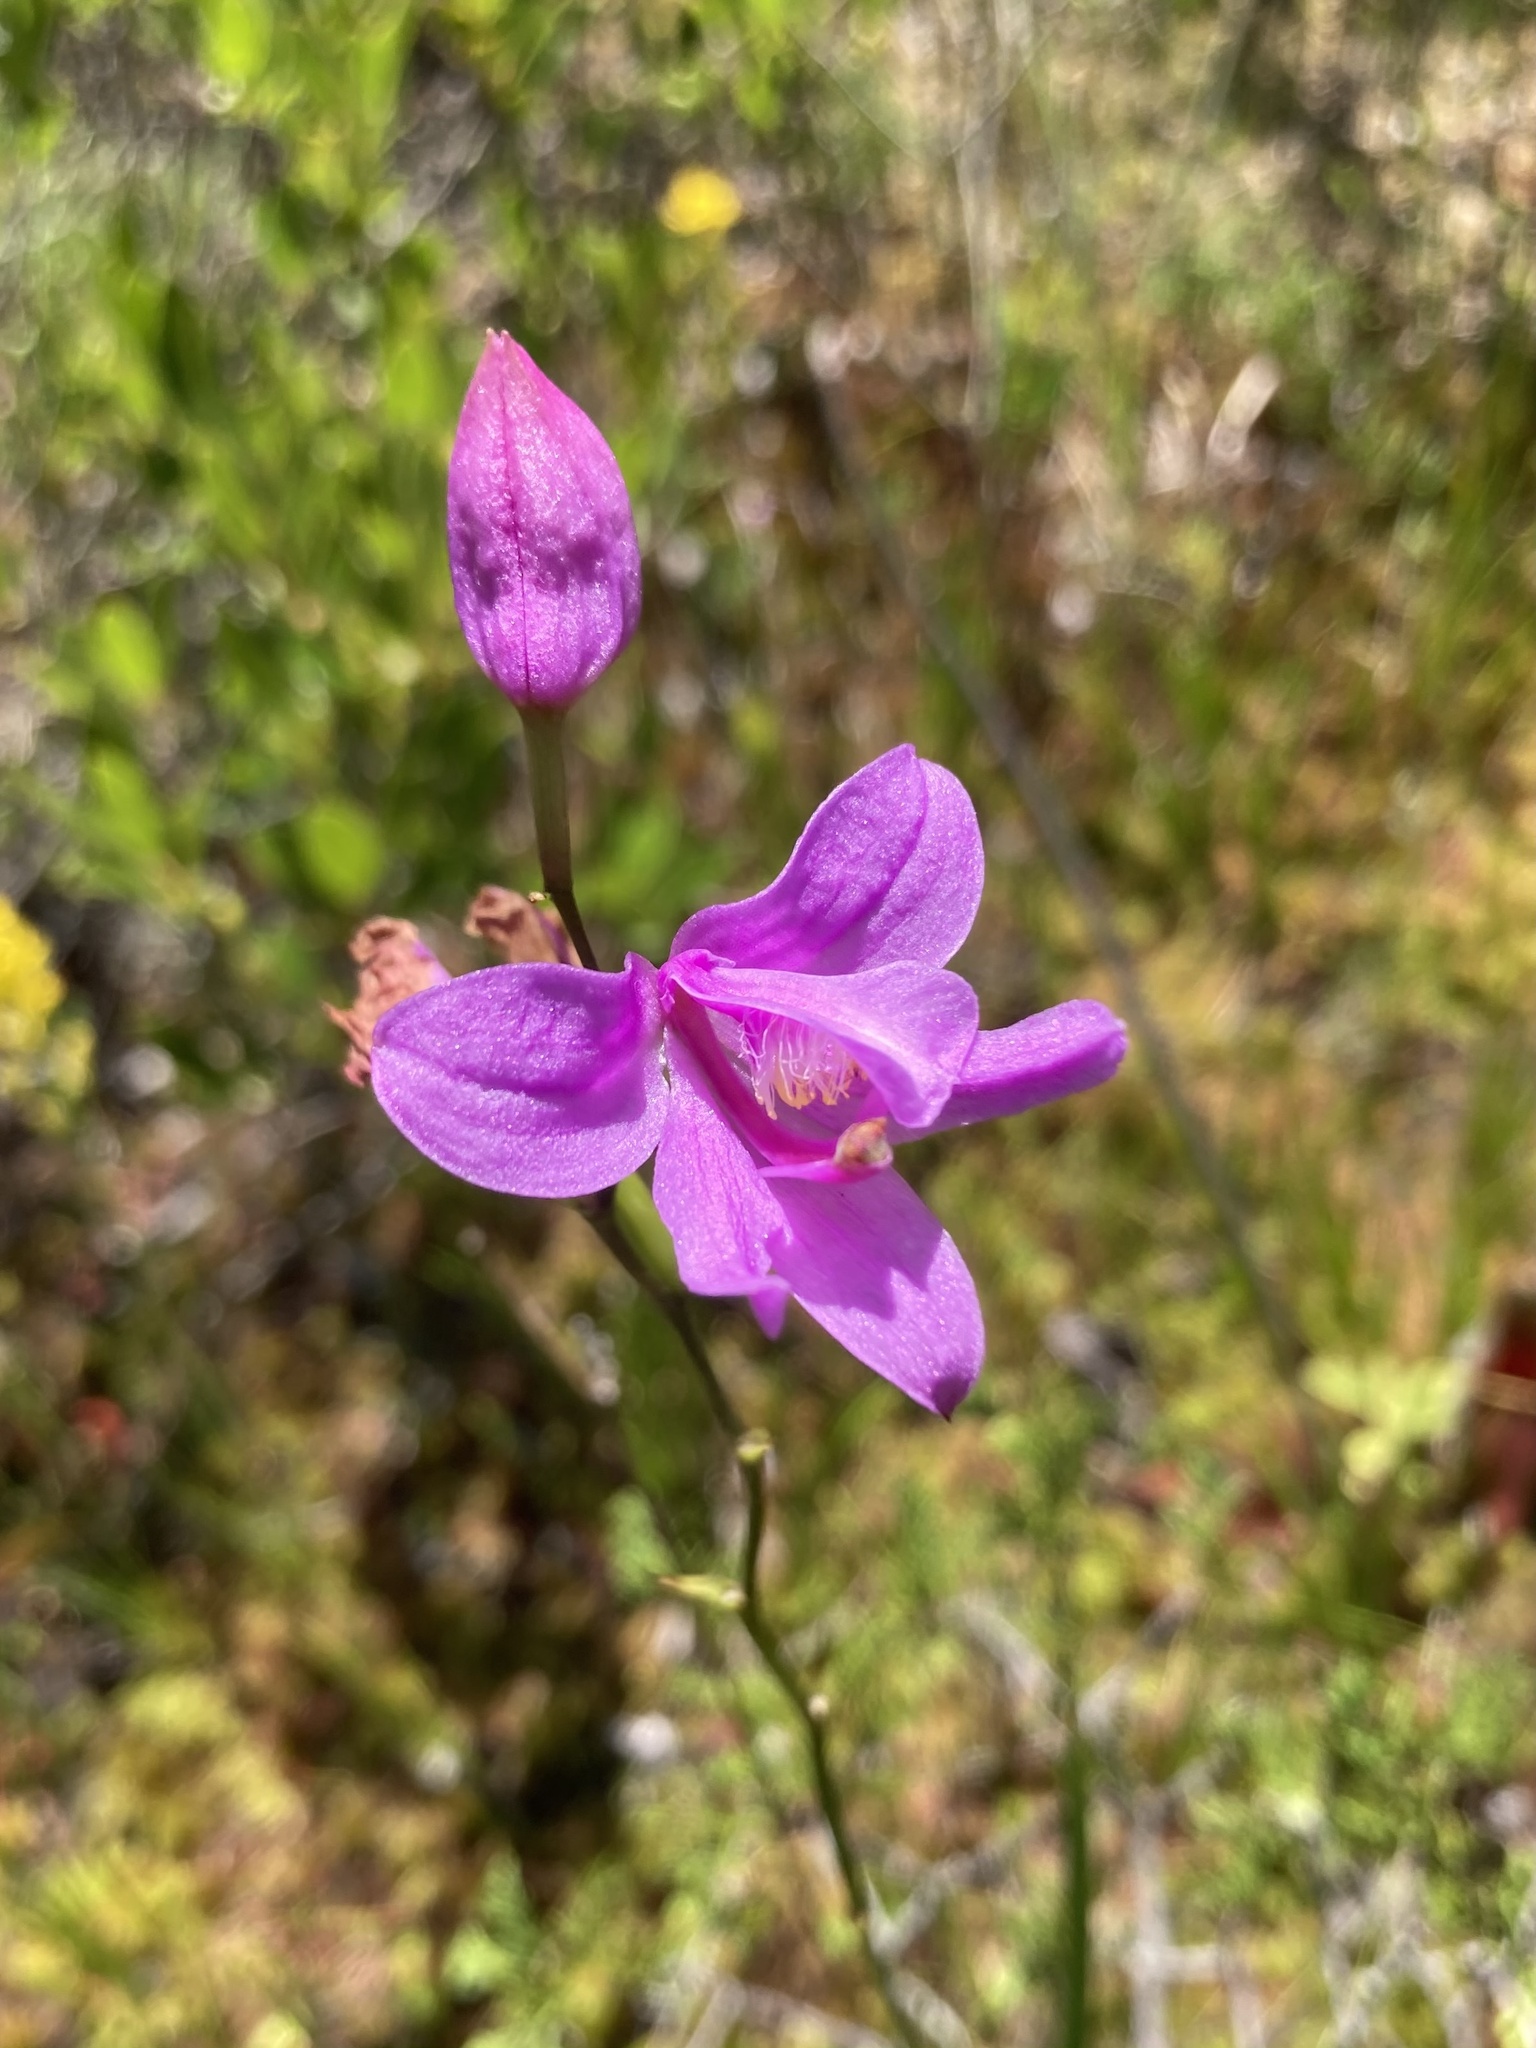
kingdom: Plantae
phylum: Tracheophyta
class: Liliopsida
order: Asparagales
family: Orchidaceae
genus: Calopogon
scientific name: Calopogon tuberosus
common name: Grass-pink
